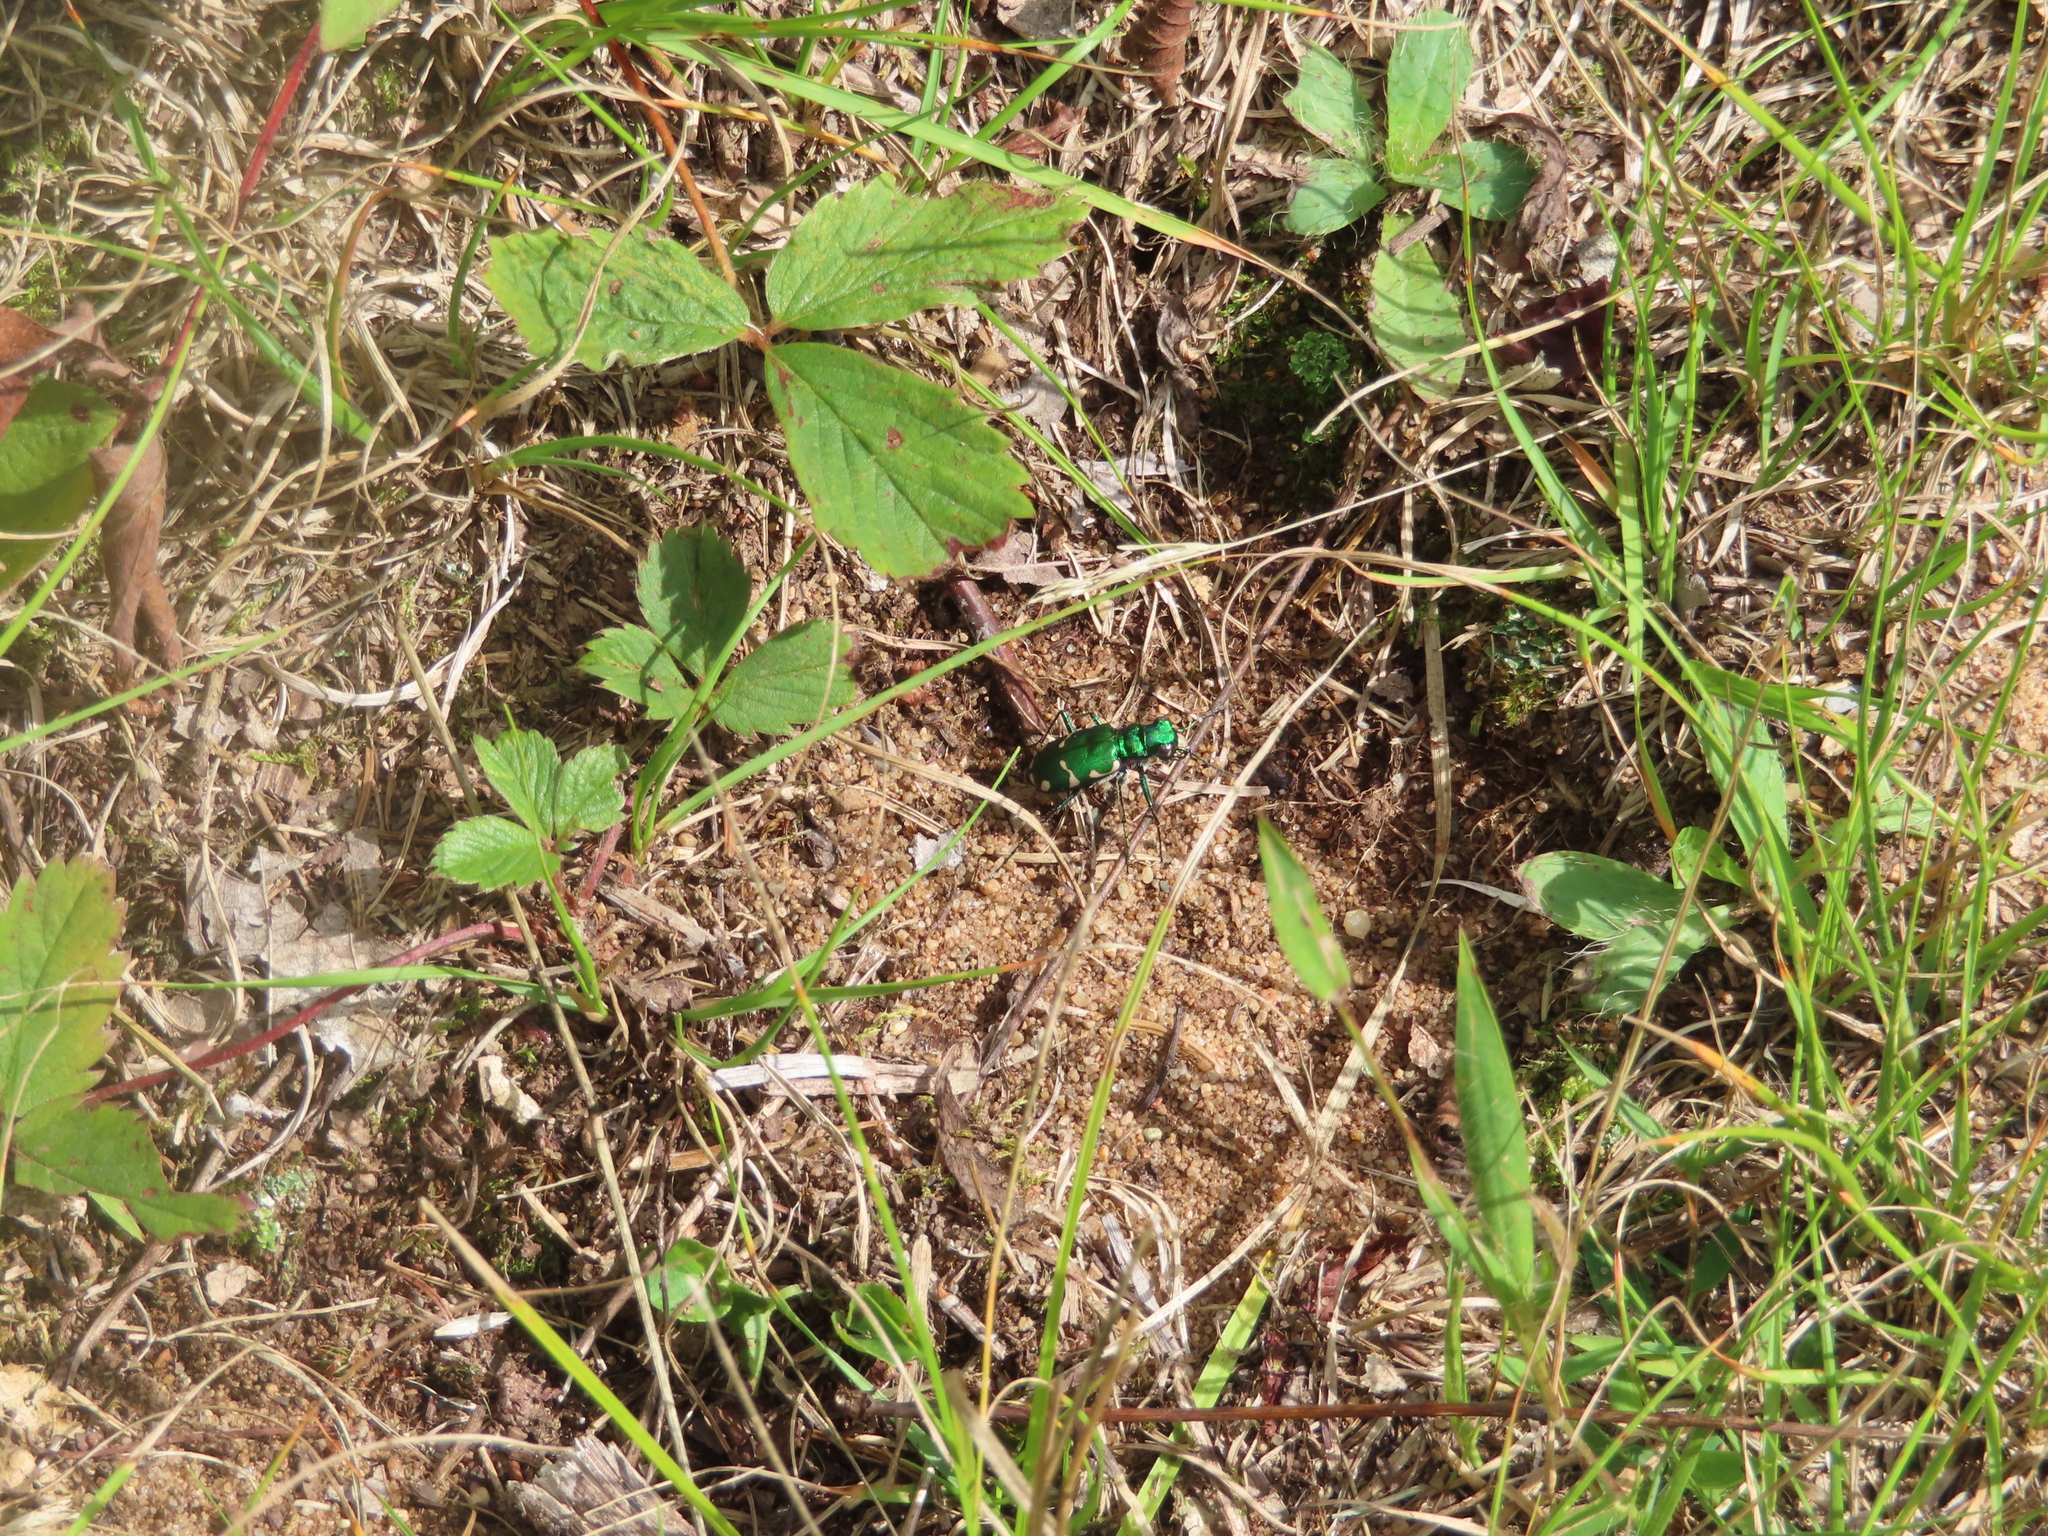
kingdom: Animalia
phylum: Arthropoda
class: Insecta
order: Coleoptera
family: Carabidae
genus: Cicindela
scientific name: Cicindela patruela
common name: Northern barrens tiger beetle
